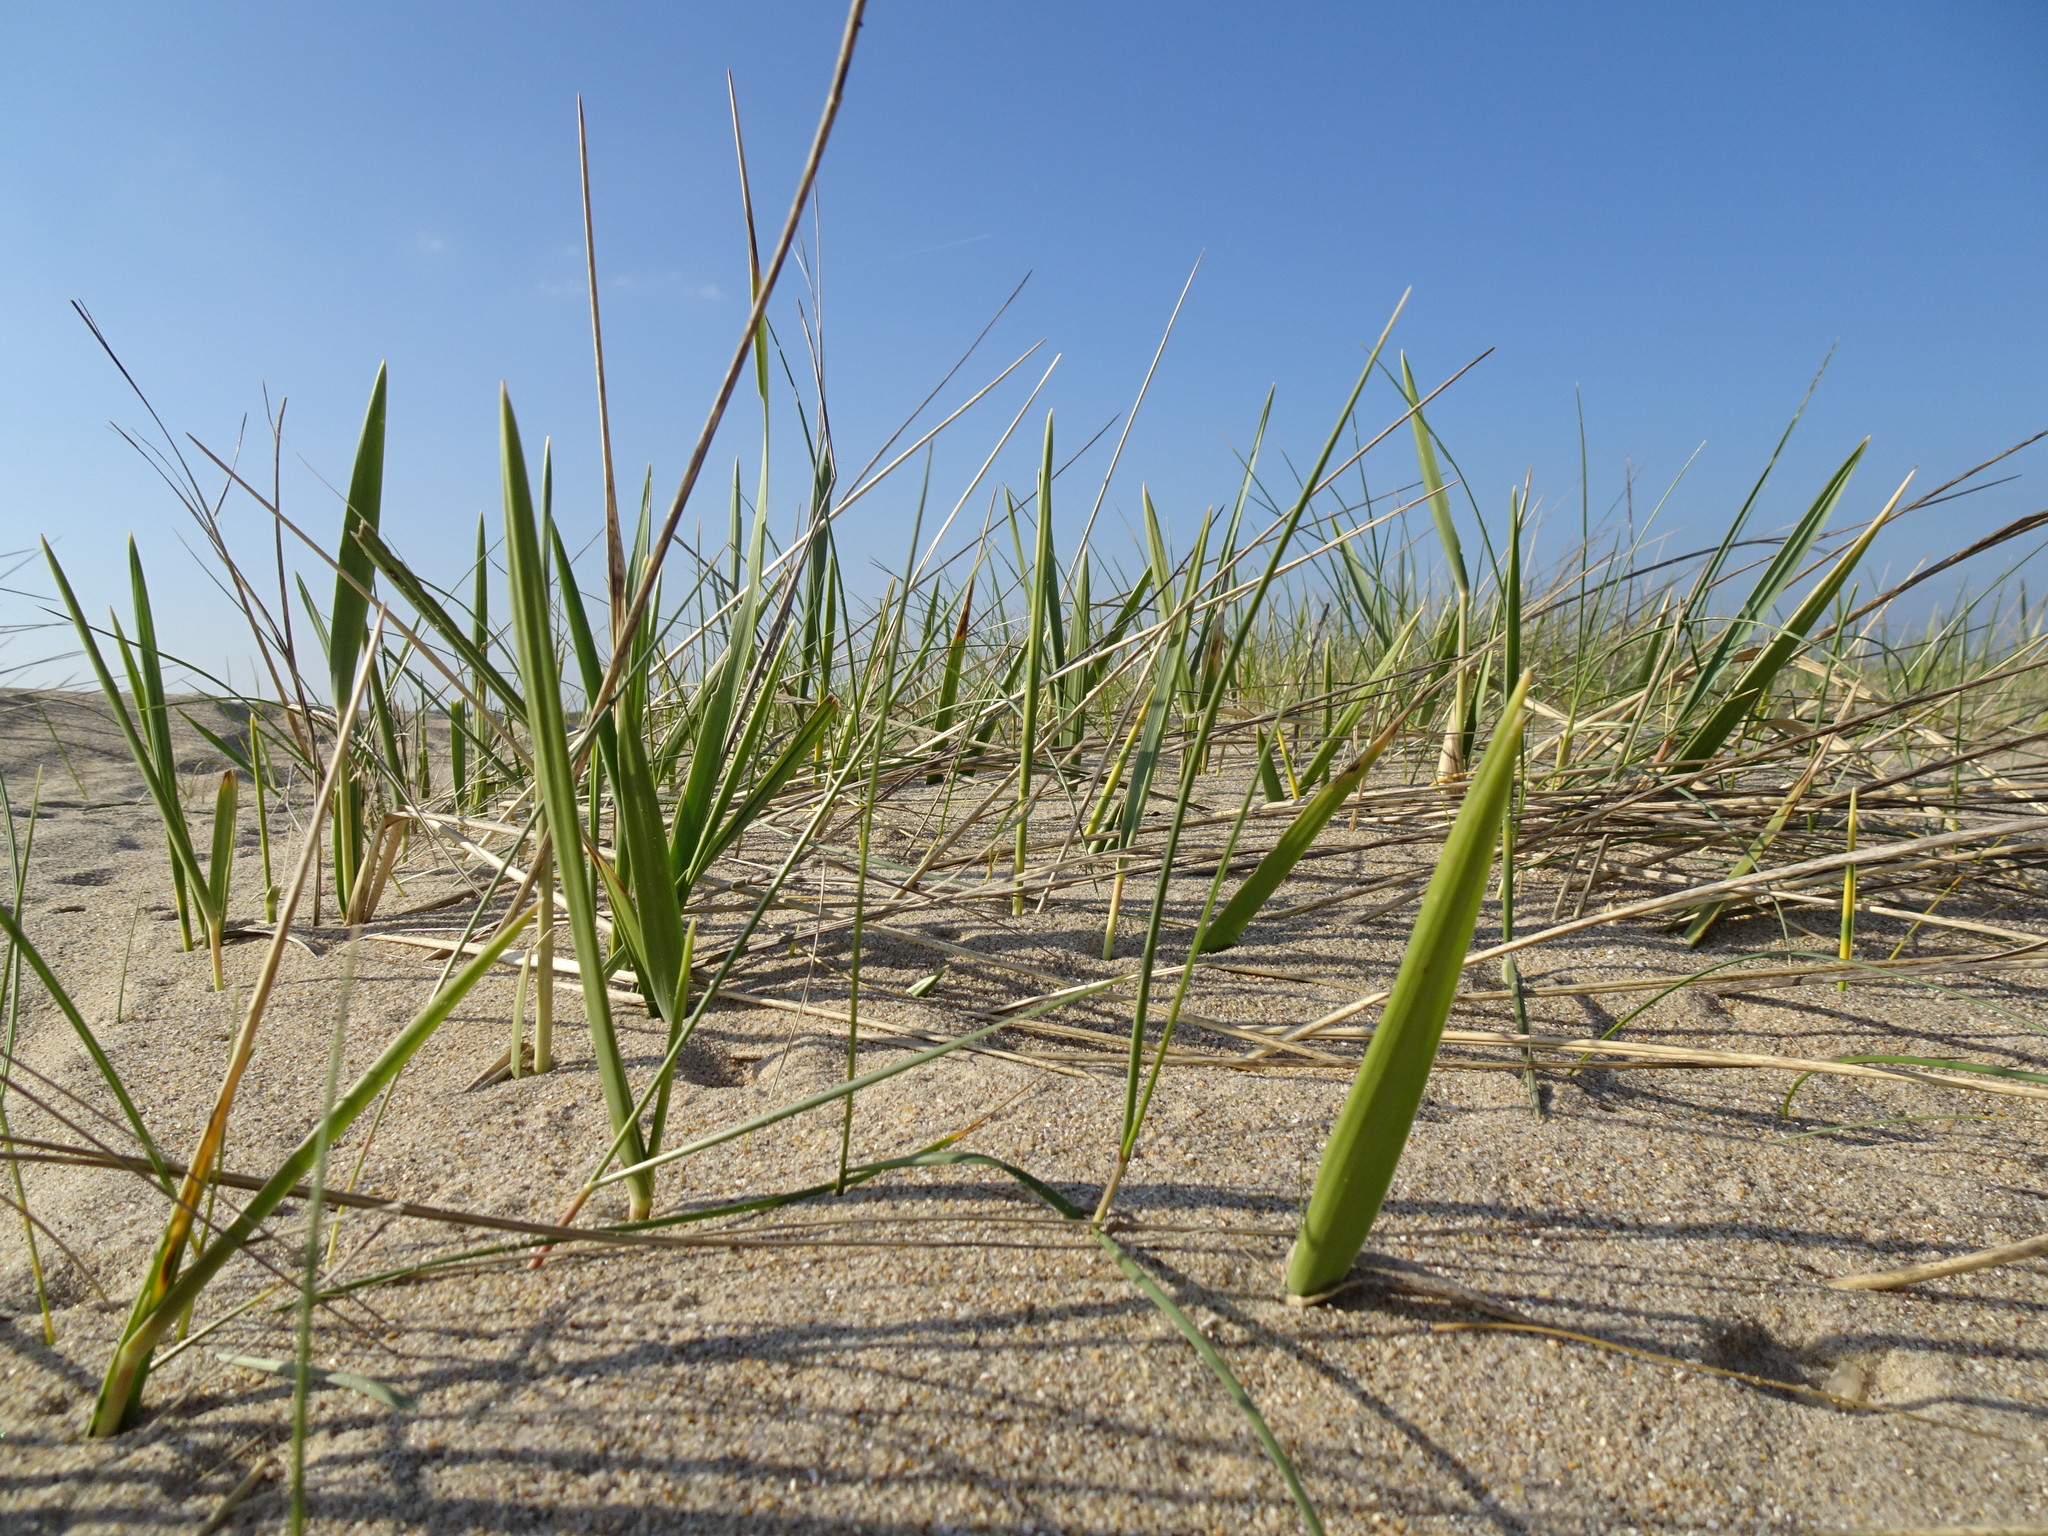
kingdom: Plantae
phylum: Tracheophyta
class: Liliopsida
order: Poales
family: Poaceae
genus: Leymus
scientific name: Leymus arenarius
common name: Lyme-grass
